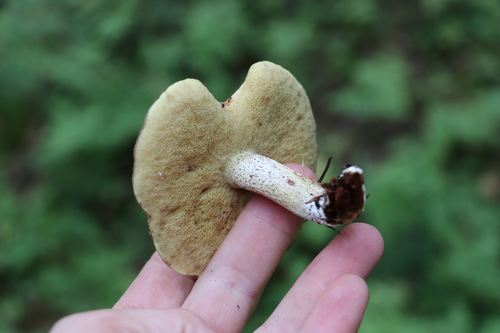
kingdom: Fungi
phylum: Basidiomycota
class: Agaricomycetes
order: Boletales
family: Suillaceae
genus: Suillus
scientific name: Suillus placidus
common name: Slippery white bolete
